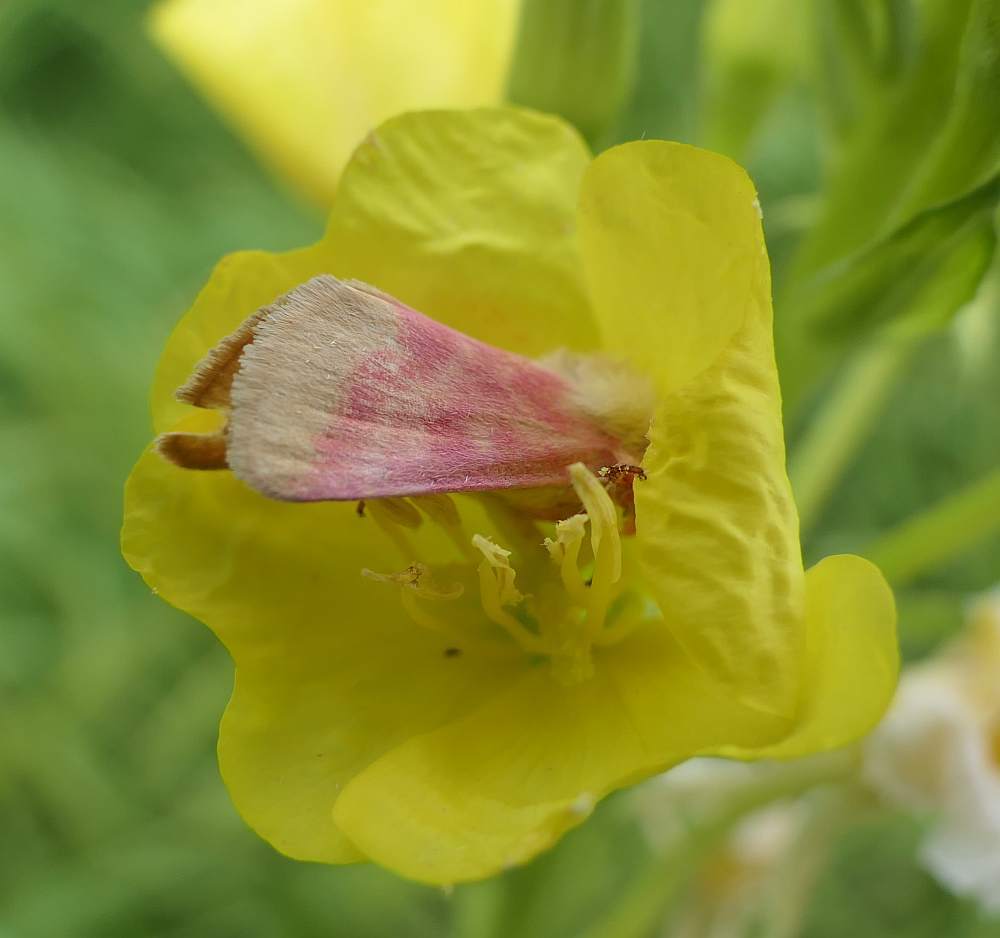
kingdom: Animalia
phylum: Arthropoda
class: Insecta
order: Lepidoptera
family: Noctuidae
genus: Schinia
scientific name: Schinia florida
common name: Primrose moth
